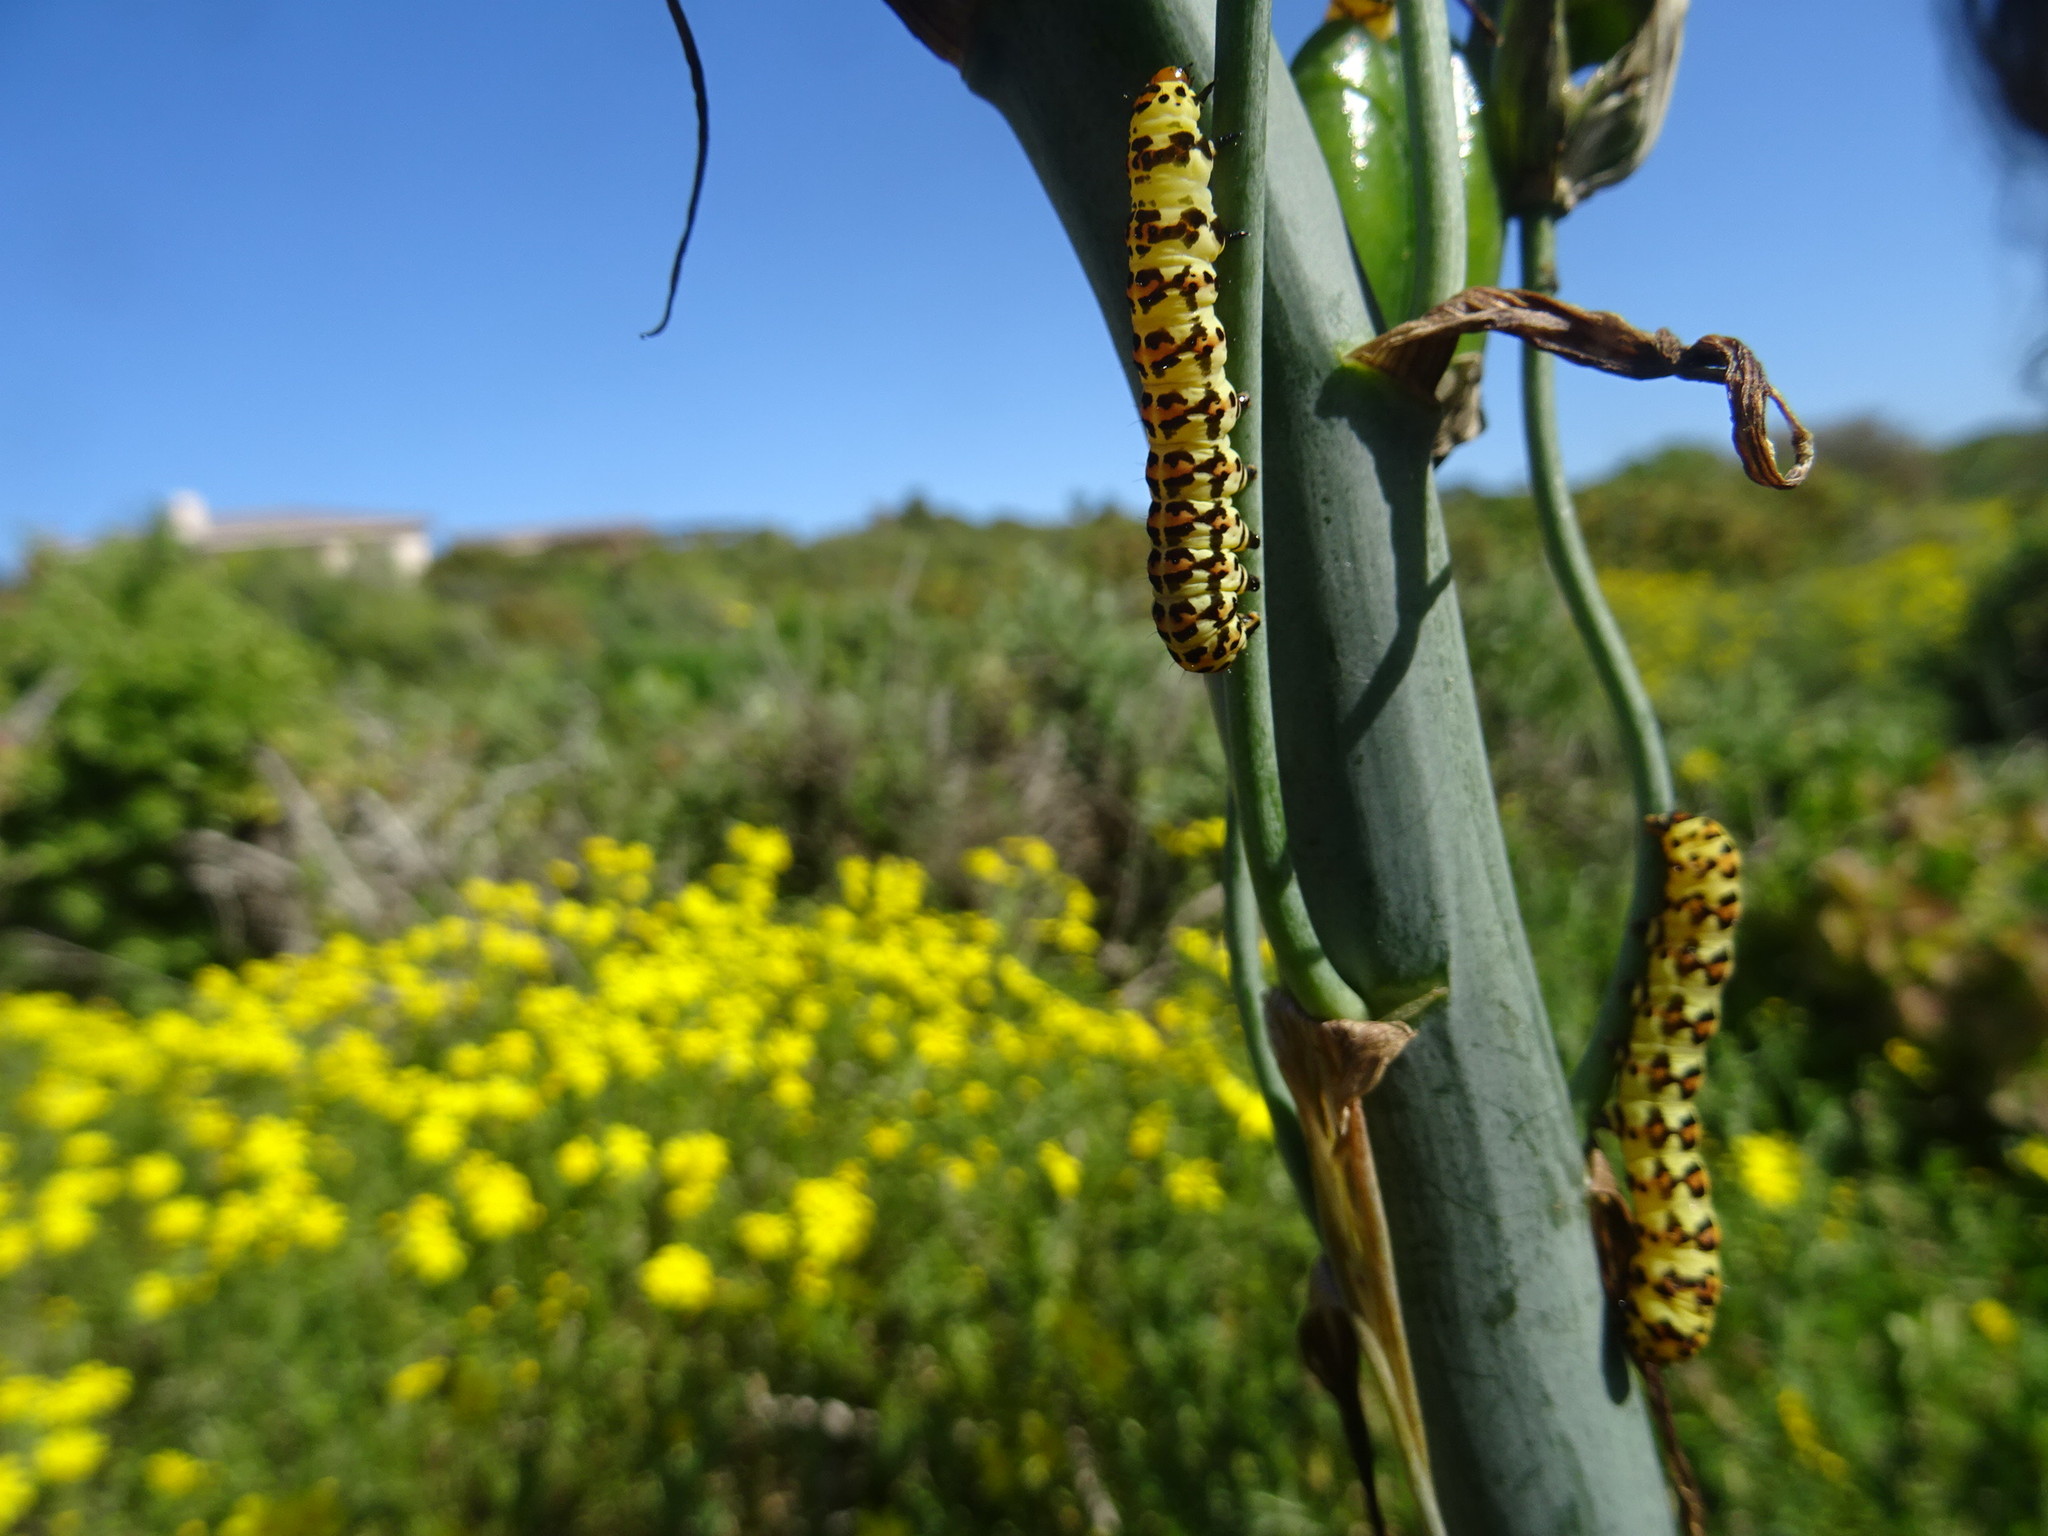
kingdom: Animalia
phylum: Arthropoda
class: Insecta
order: Lepidoptera
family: Noctuidae
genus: Diaphone
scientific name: Diaphone eumela
